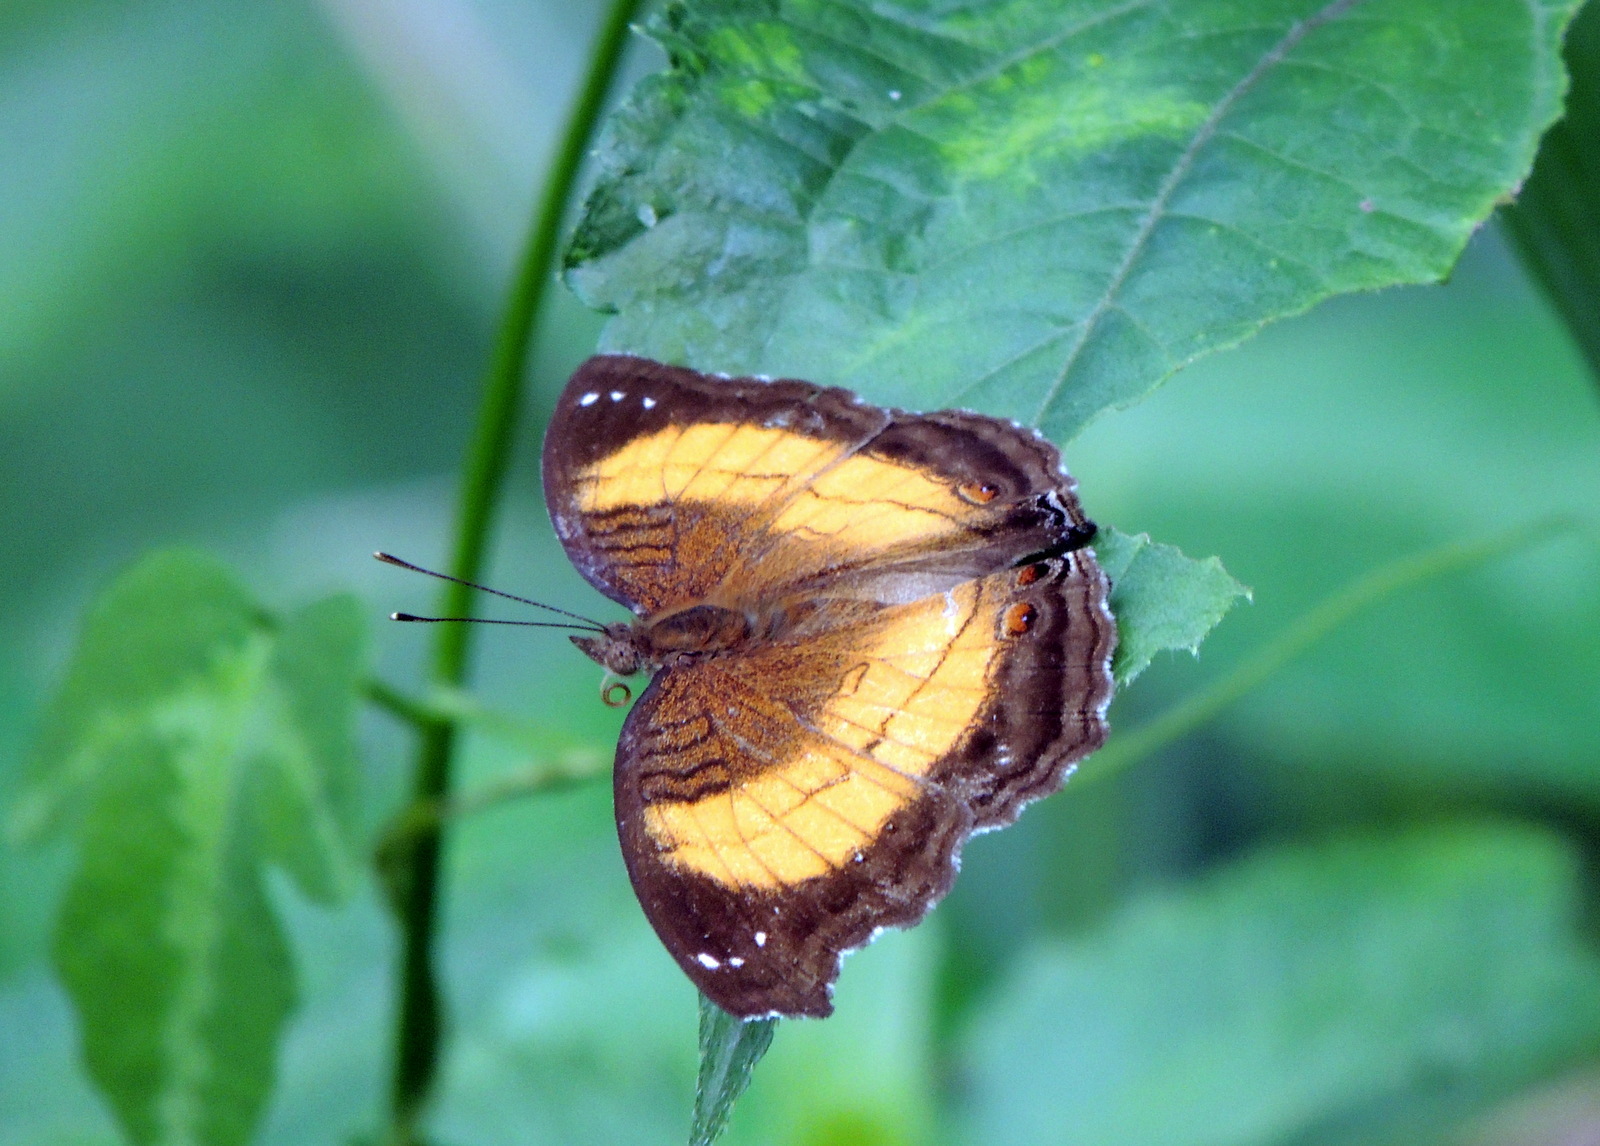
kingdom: Animalia
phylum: Arthropoda
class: Insecta
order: Lepidoptera
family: Nymphalidae
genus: Junonia
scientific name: Junonia terea
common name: Soldier pansy
